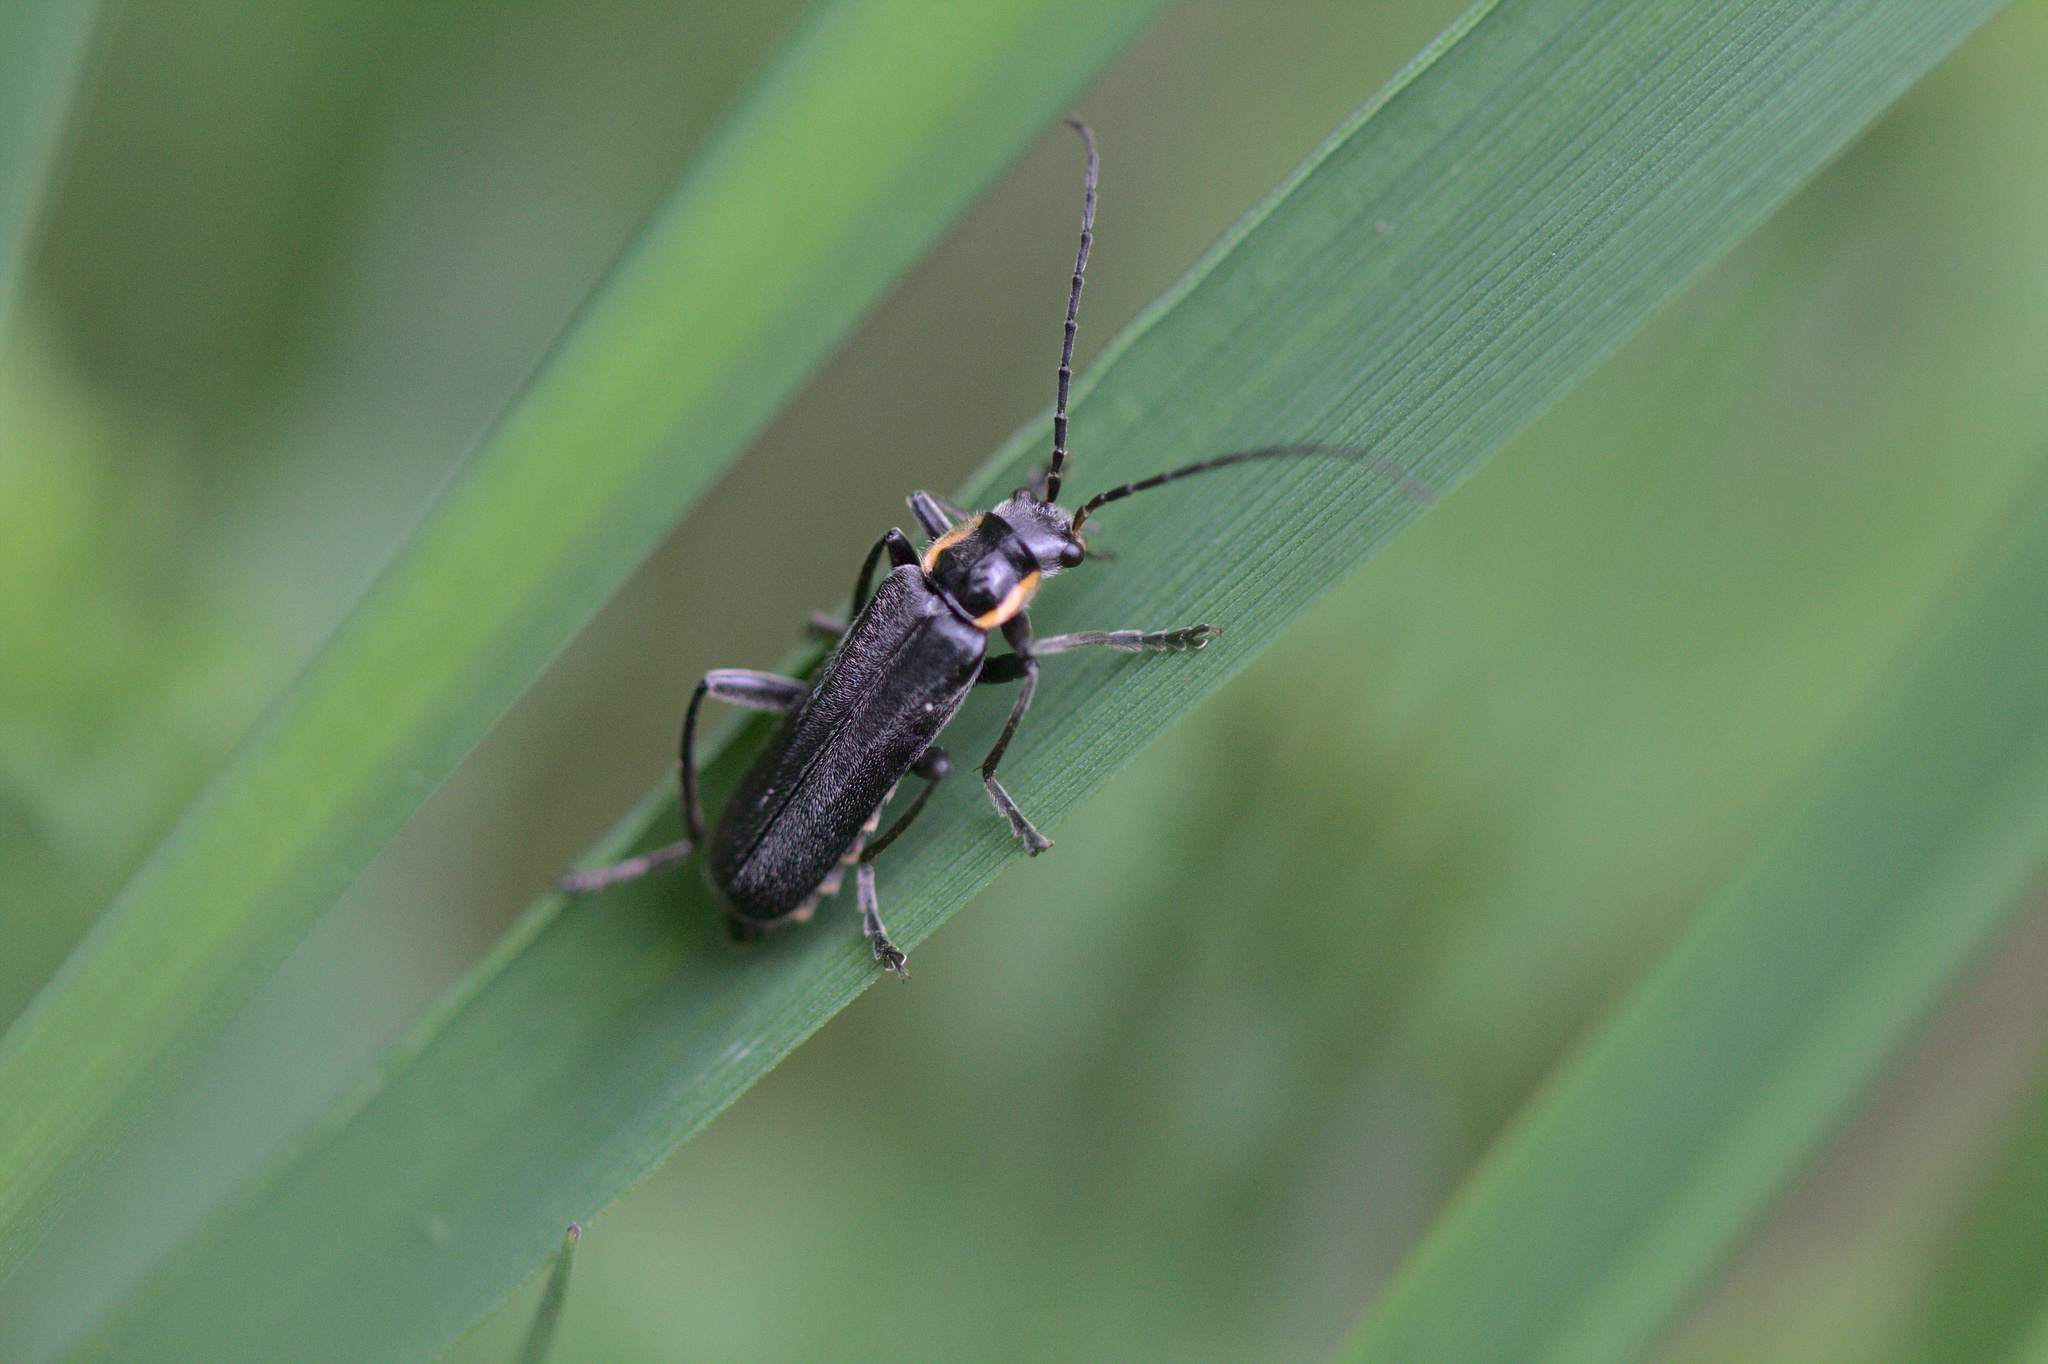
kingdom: Animalia
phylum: Arthropoda
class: Insecta
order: Coleoptera
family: Cantharidae
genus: Cantharis
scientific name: Cantharis
